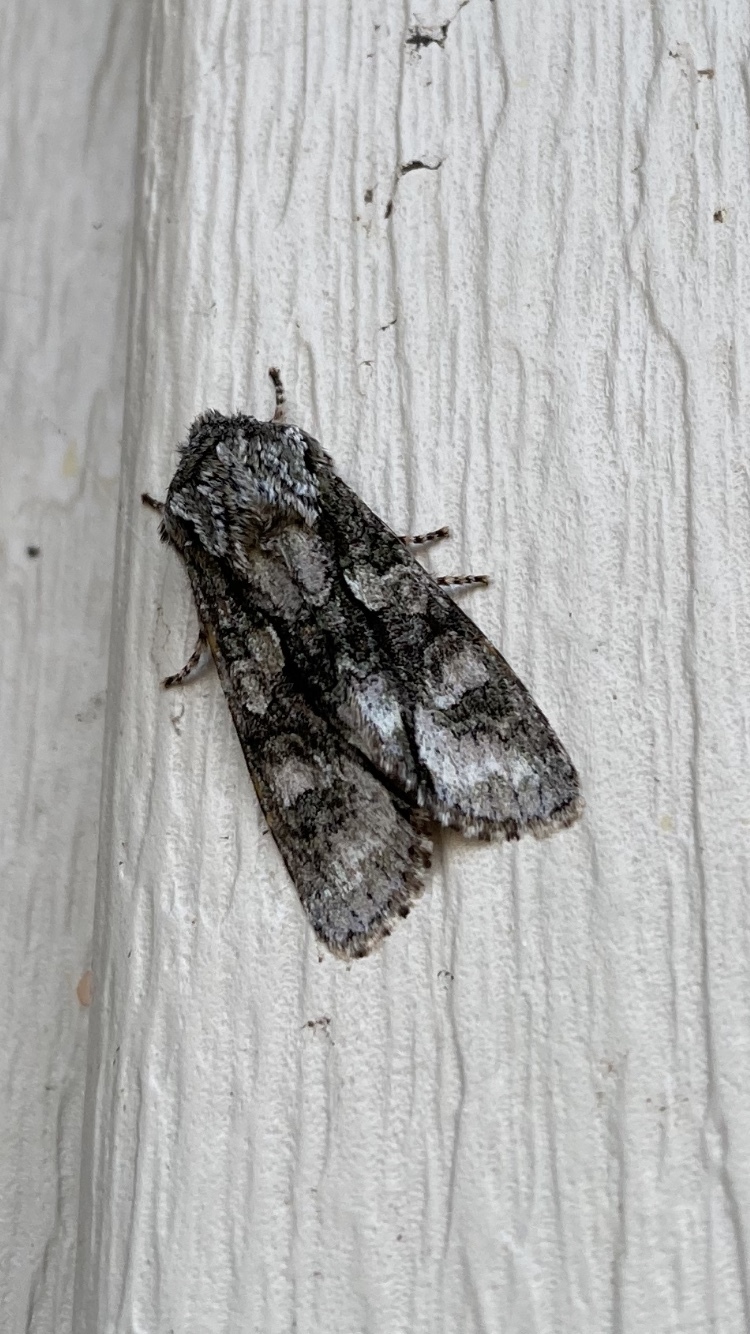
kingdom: Animalia
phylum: Arthropoda
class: Insecta
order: Lepidoptera
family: Noctuidae
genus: Psaphida
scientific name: Psaphida resumens
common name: Figure-eight sallow
